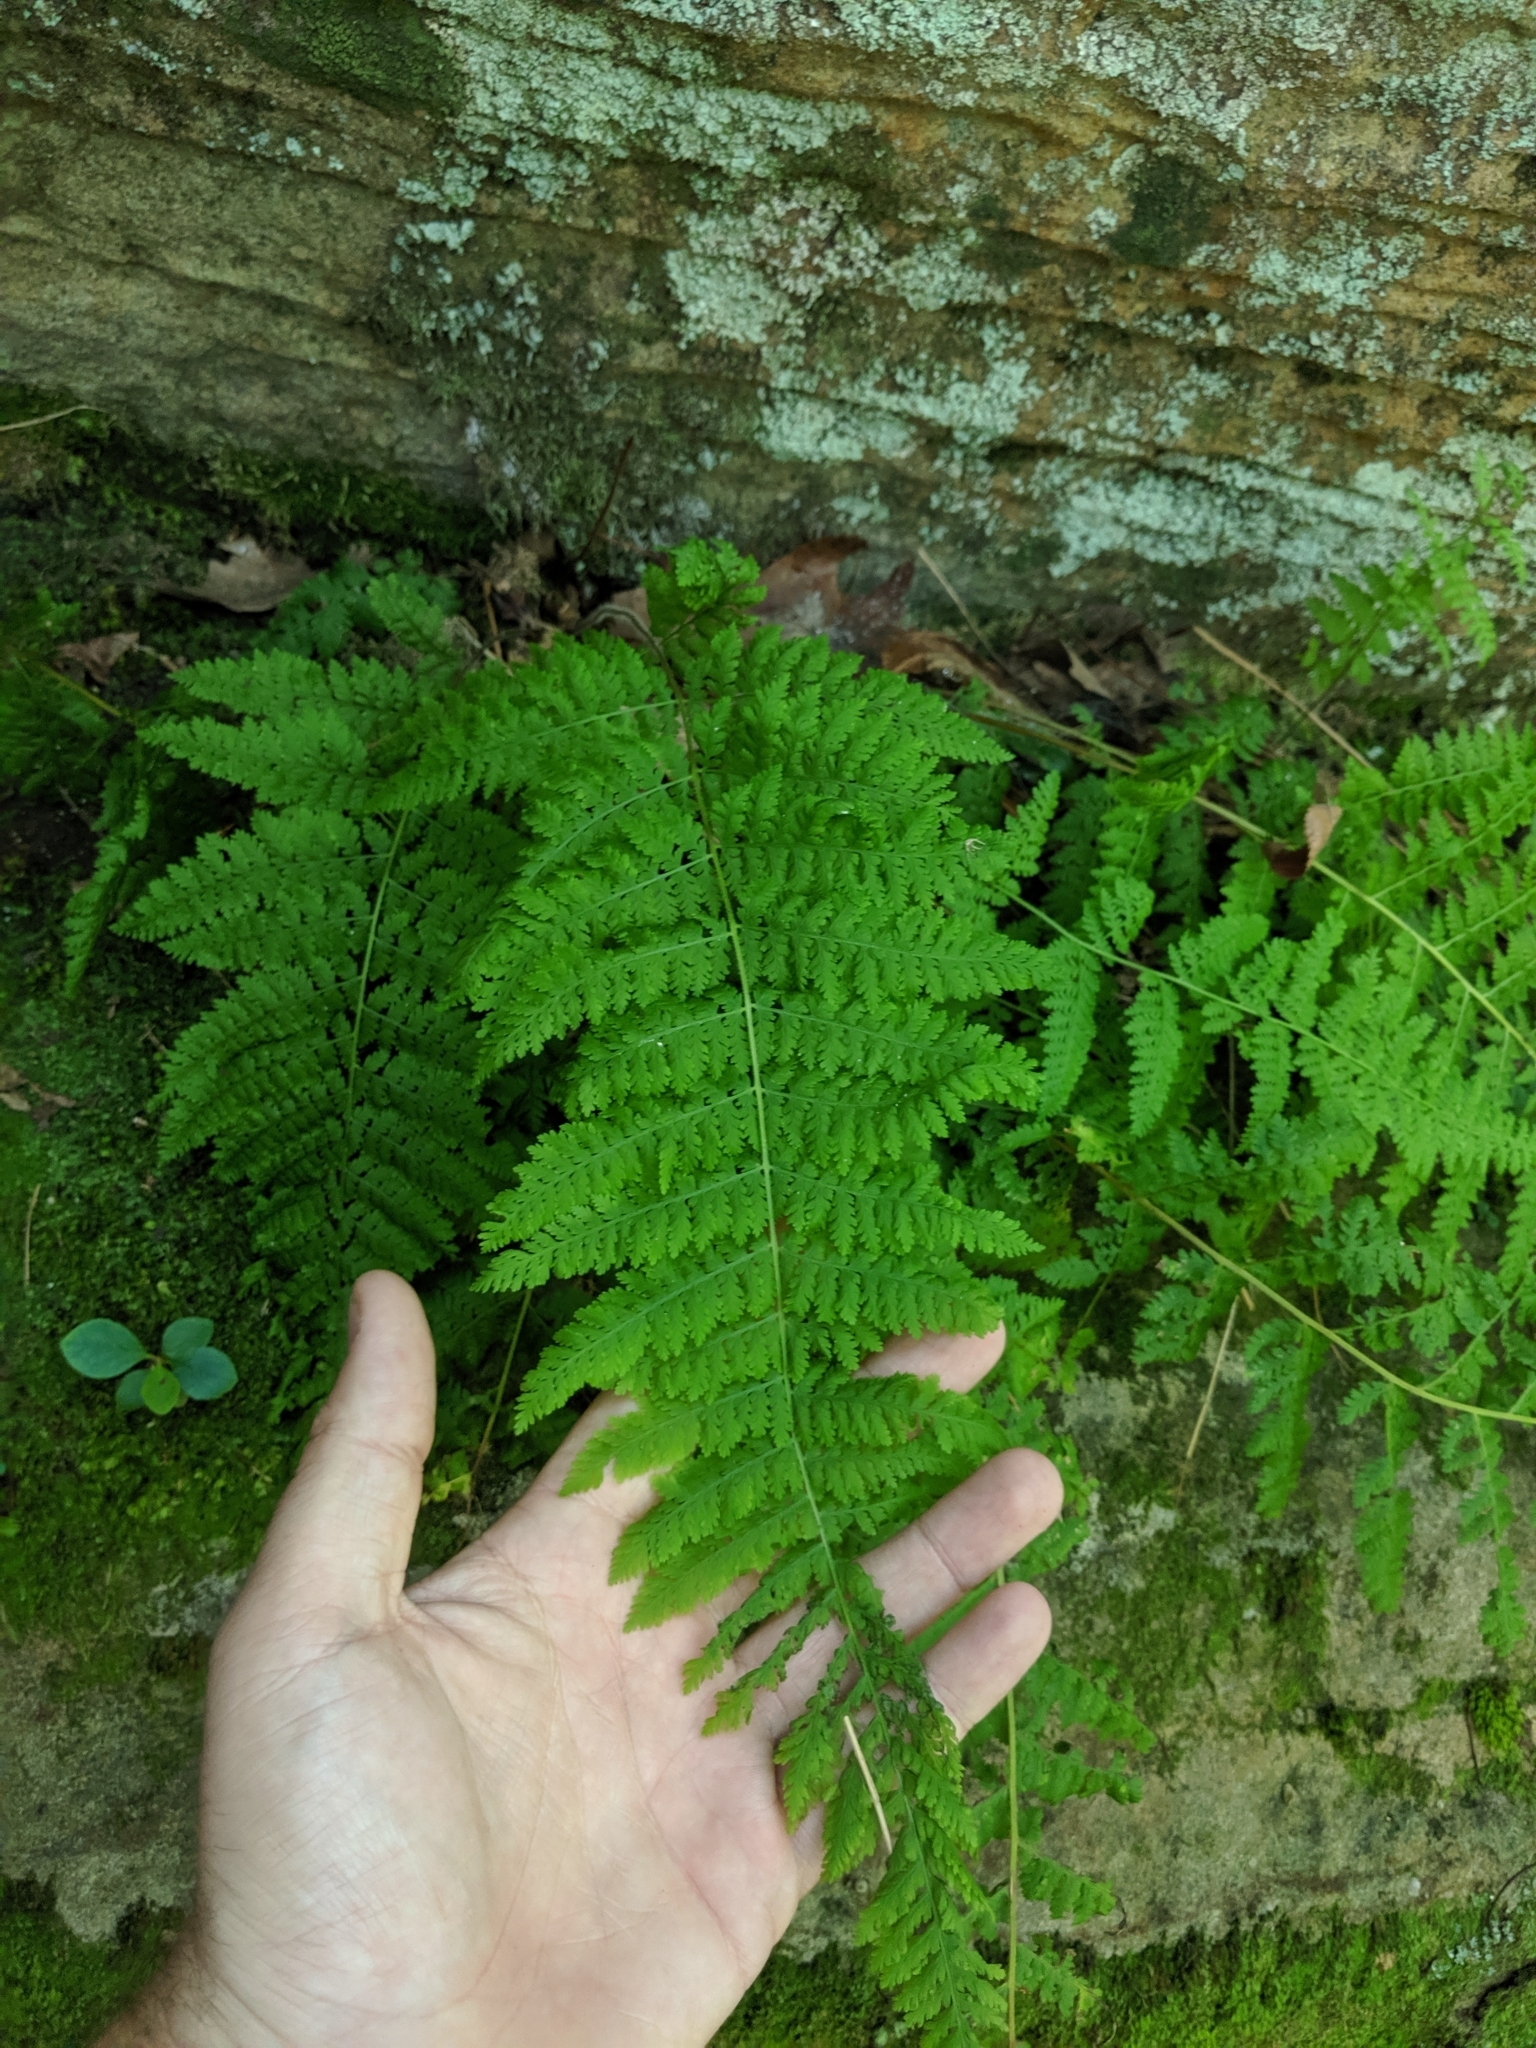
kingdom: Plantae
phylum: Tracheophyta
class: Polypodiopsida
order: Polypodiales
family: Dennstaedtiaceae
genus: Sitobolium
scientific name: Sitobolium punctilobum
